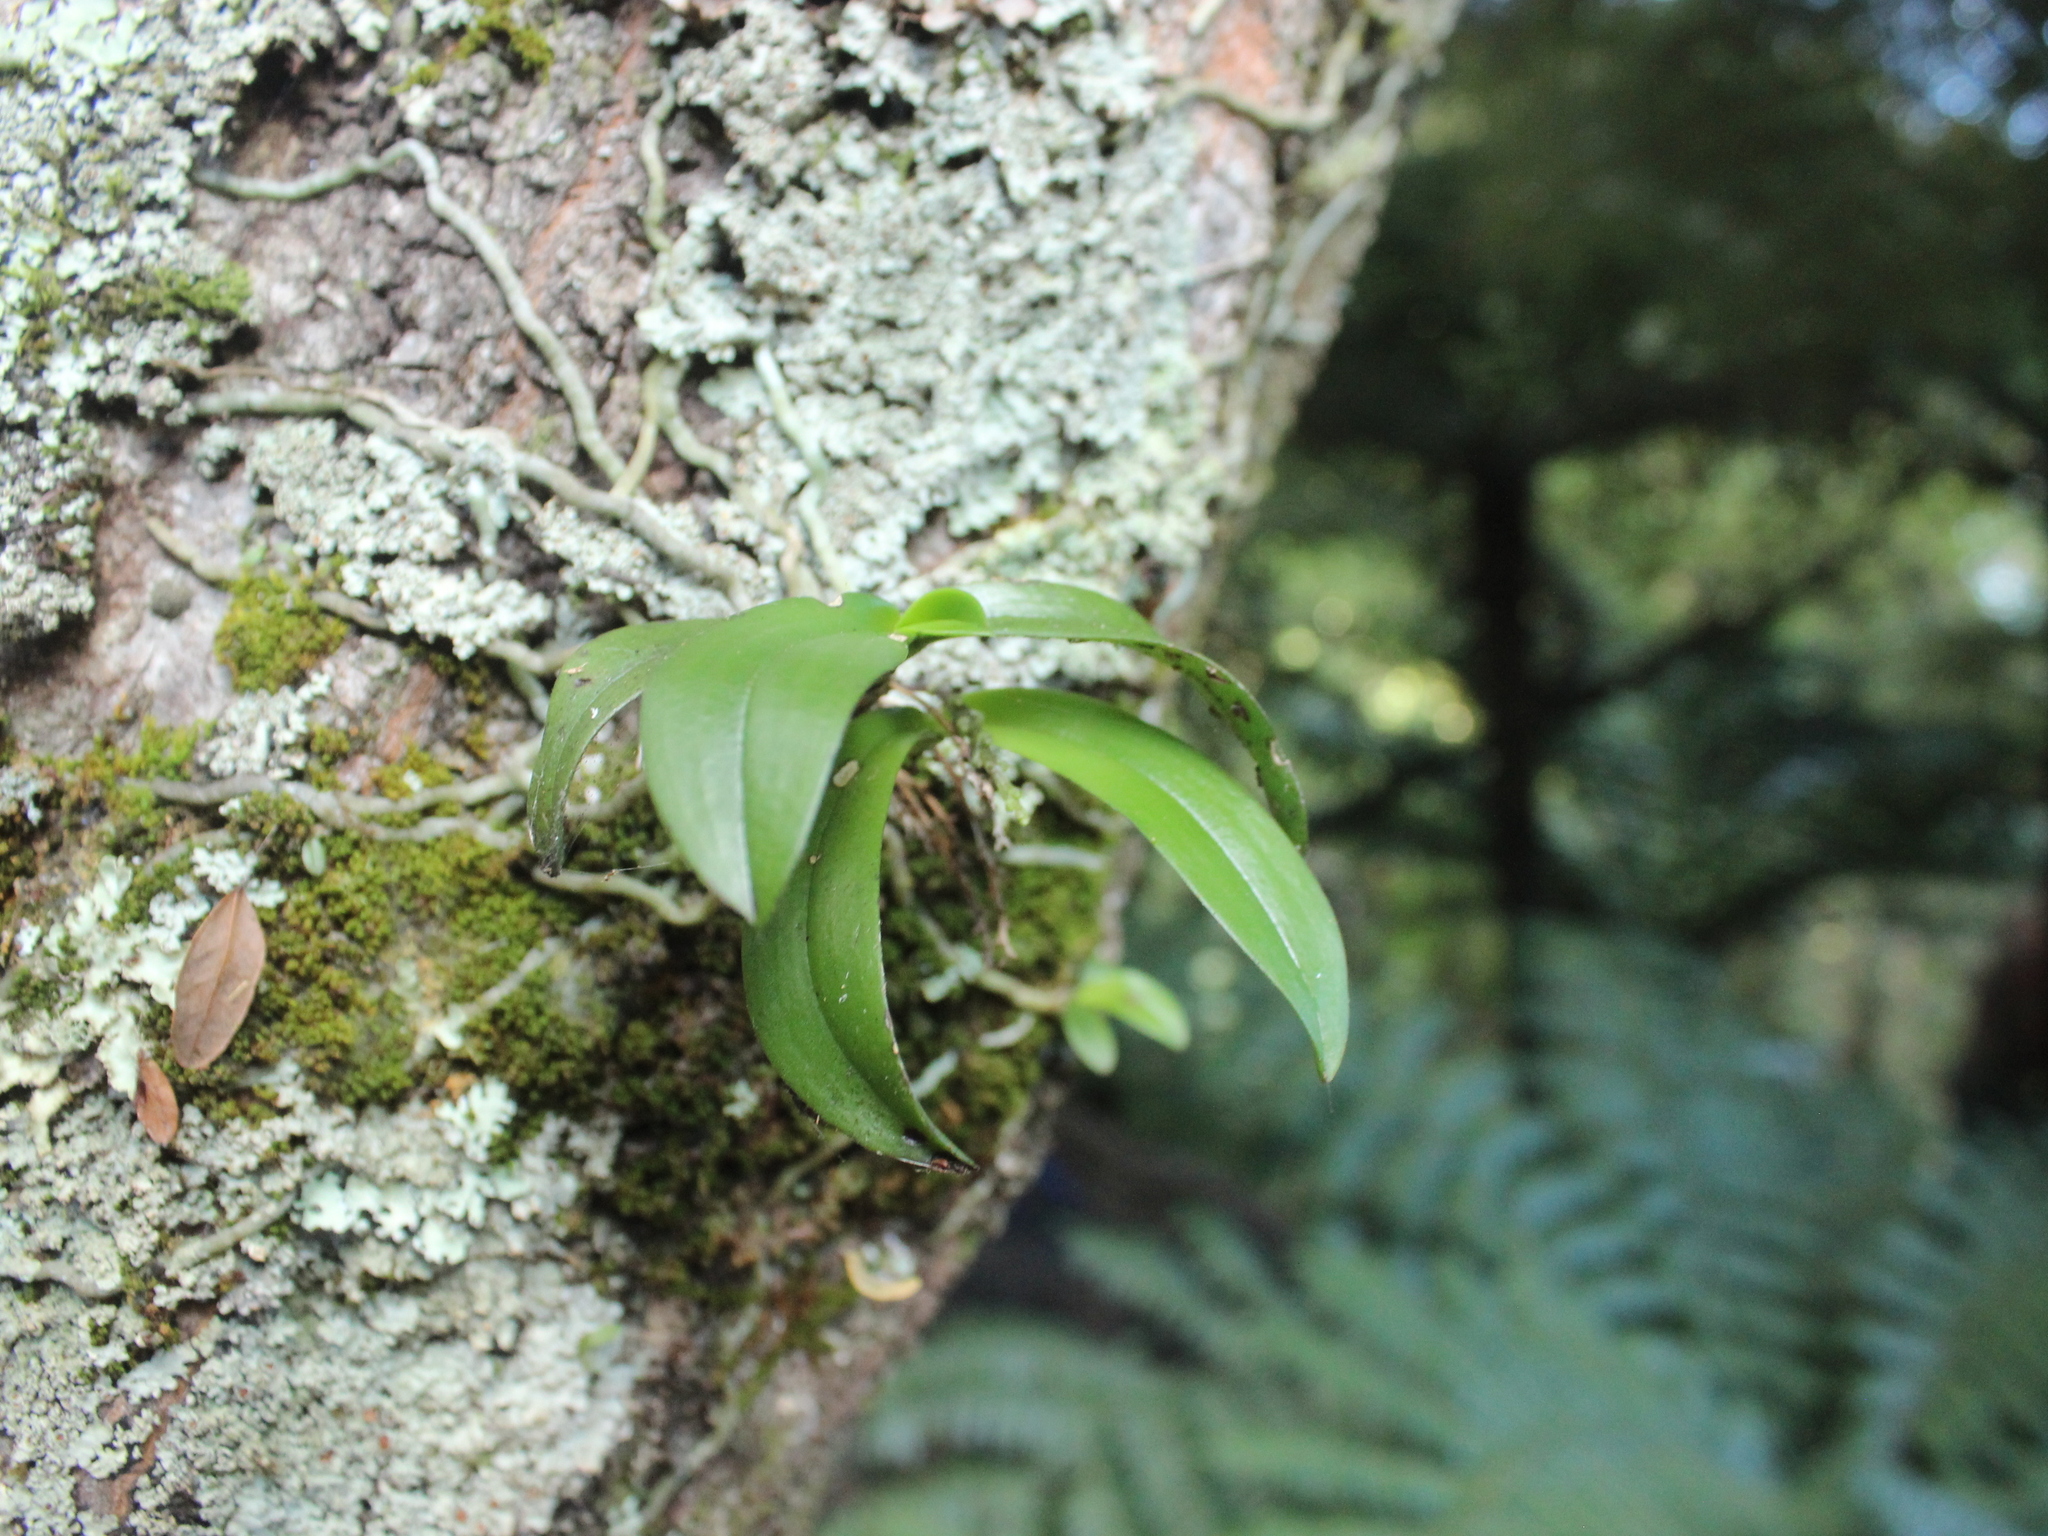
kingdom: Plantae
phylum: Tracheophyta
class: Liliopsida
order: Asparagales
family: Orchidaceae
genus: Drymoanthus
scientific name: Drymoanthus adversus
